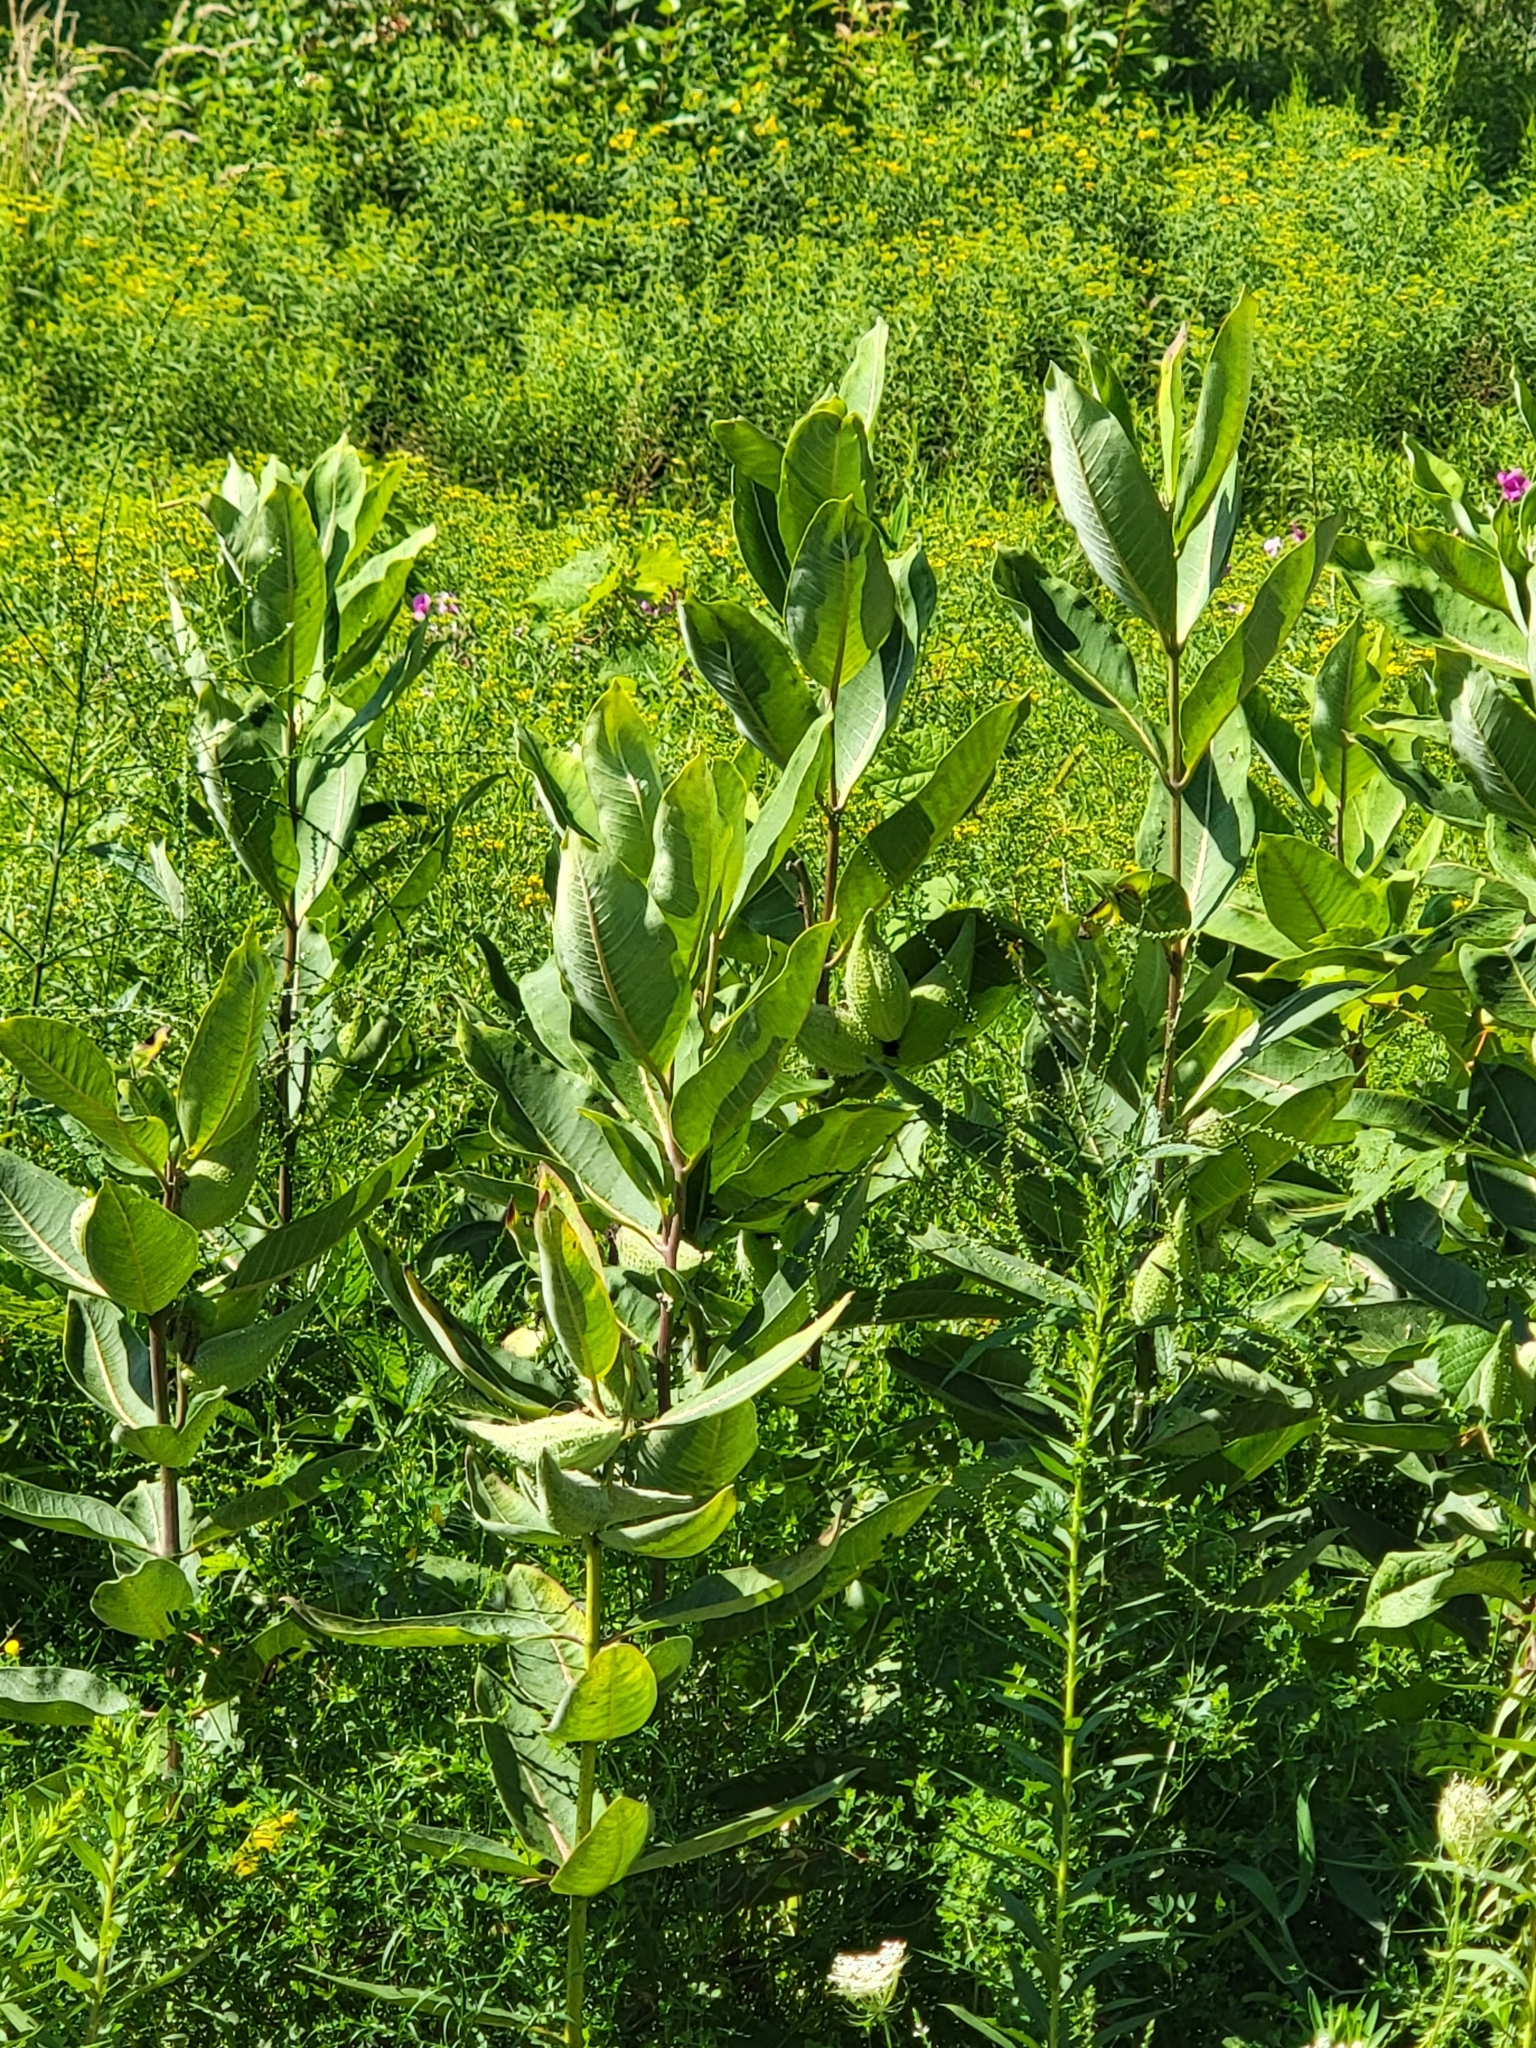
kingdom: Plantae
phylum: Tracheophyta
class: Magnoliopsida
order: Gentianales
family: Apocynaceae
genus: Asclepias
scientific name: Asclepias syriaca
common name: Common milkweed
